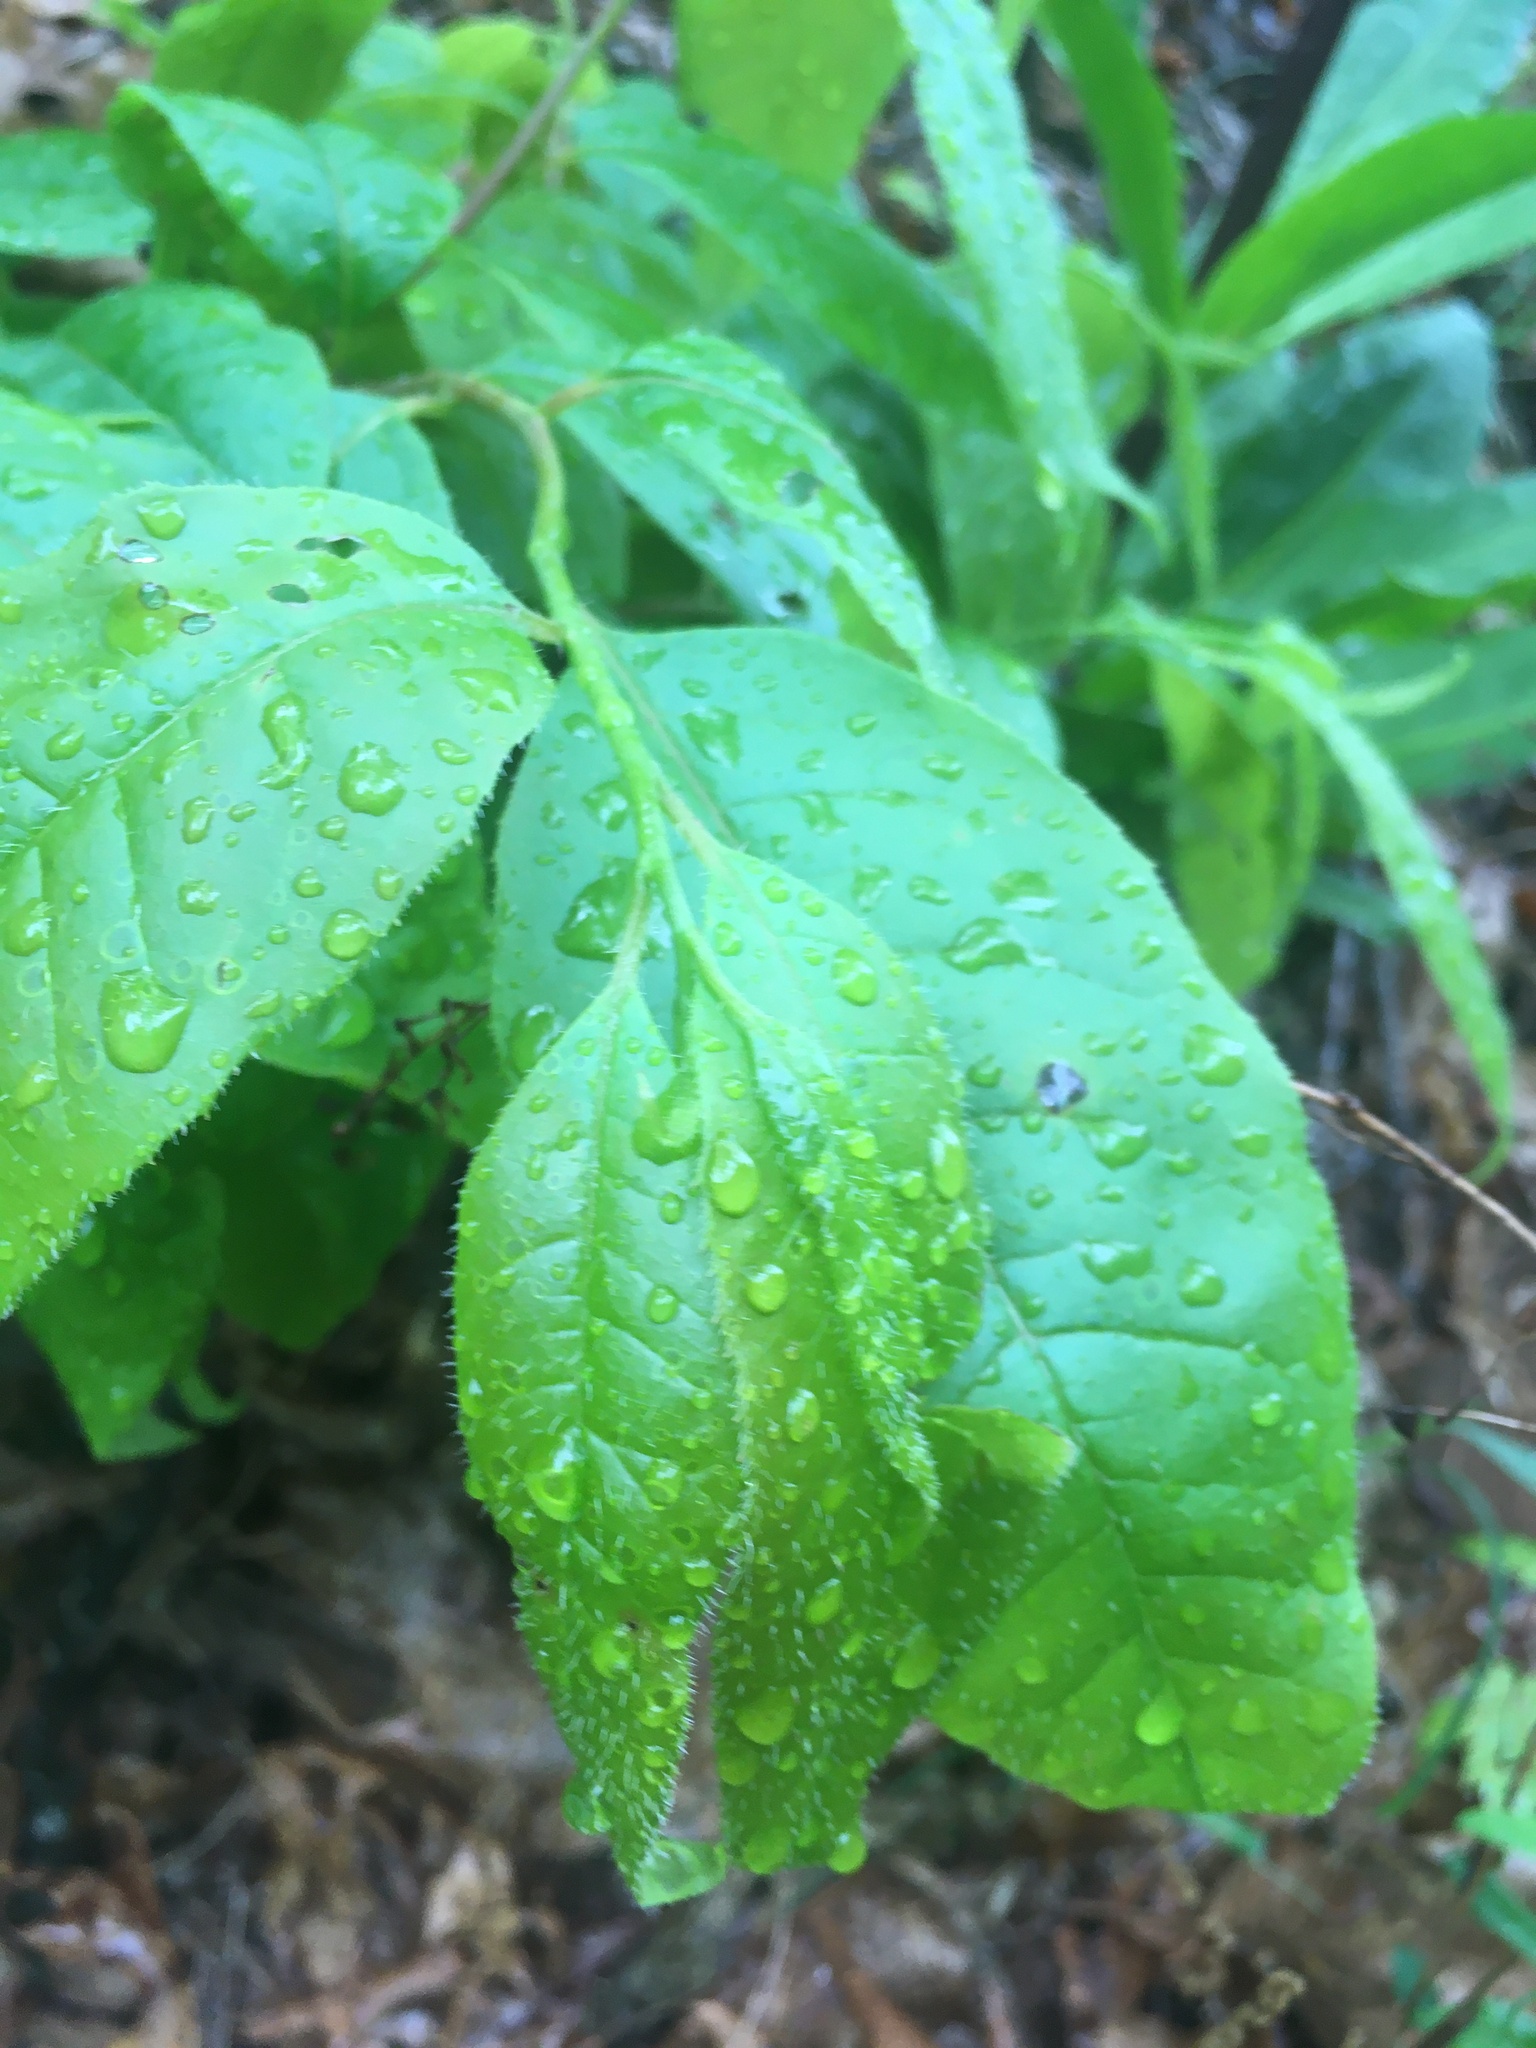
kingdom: Plantae
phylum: Tracheophyta
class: Magnoliopsida
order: Ericales
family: Ericaceae
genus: Oxydendrum
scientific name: Oxydendrum arboreum
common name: Sourwood
